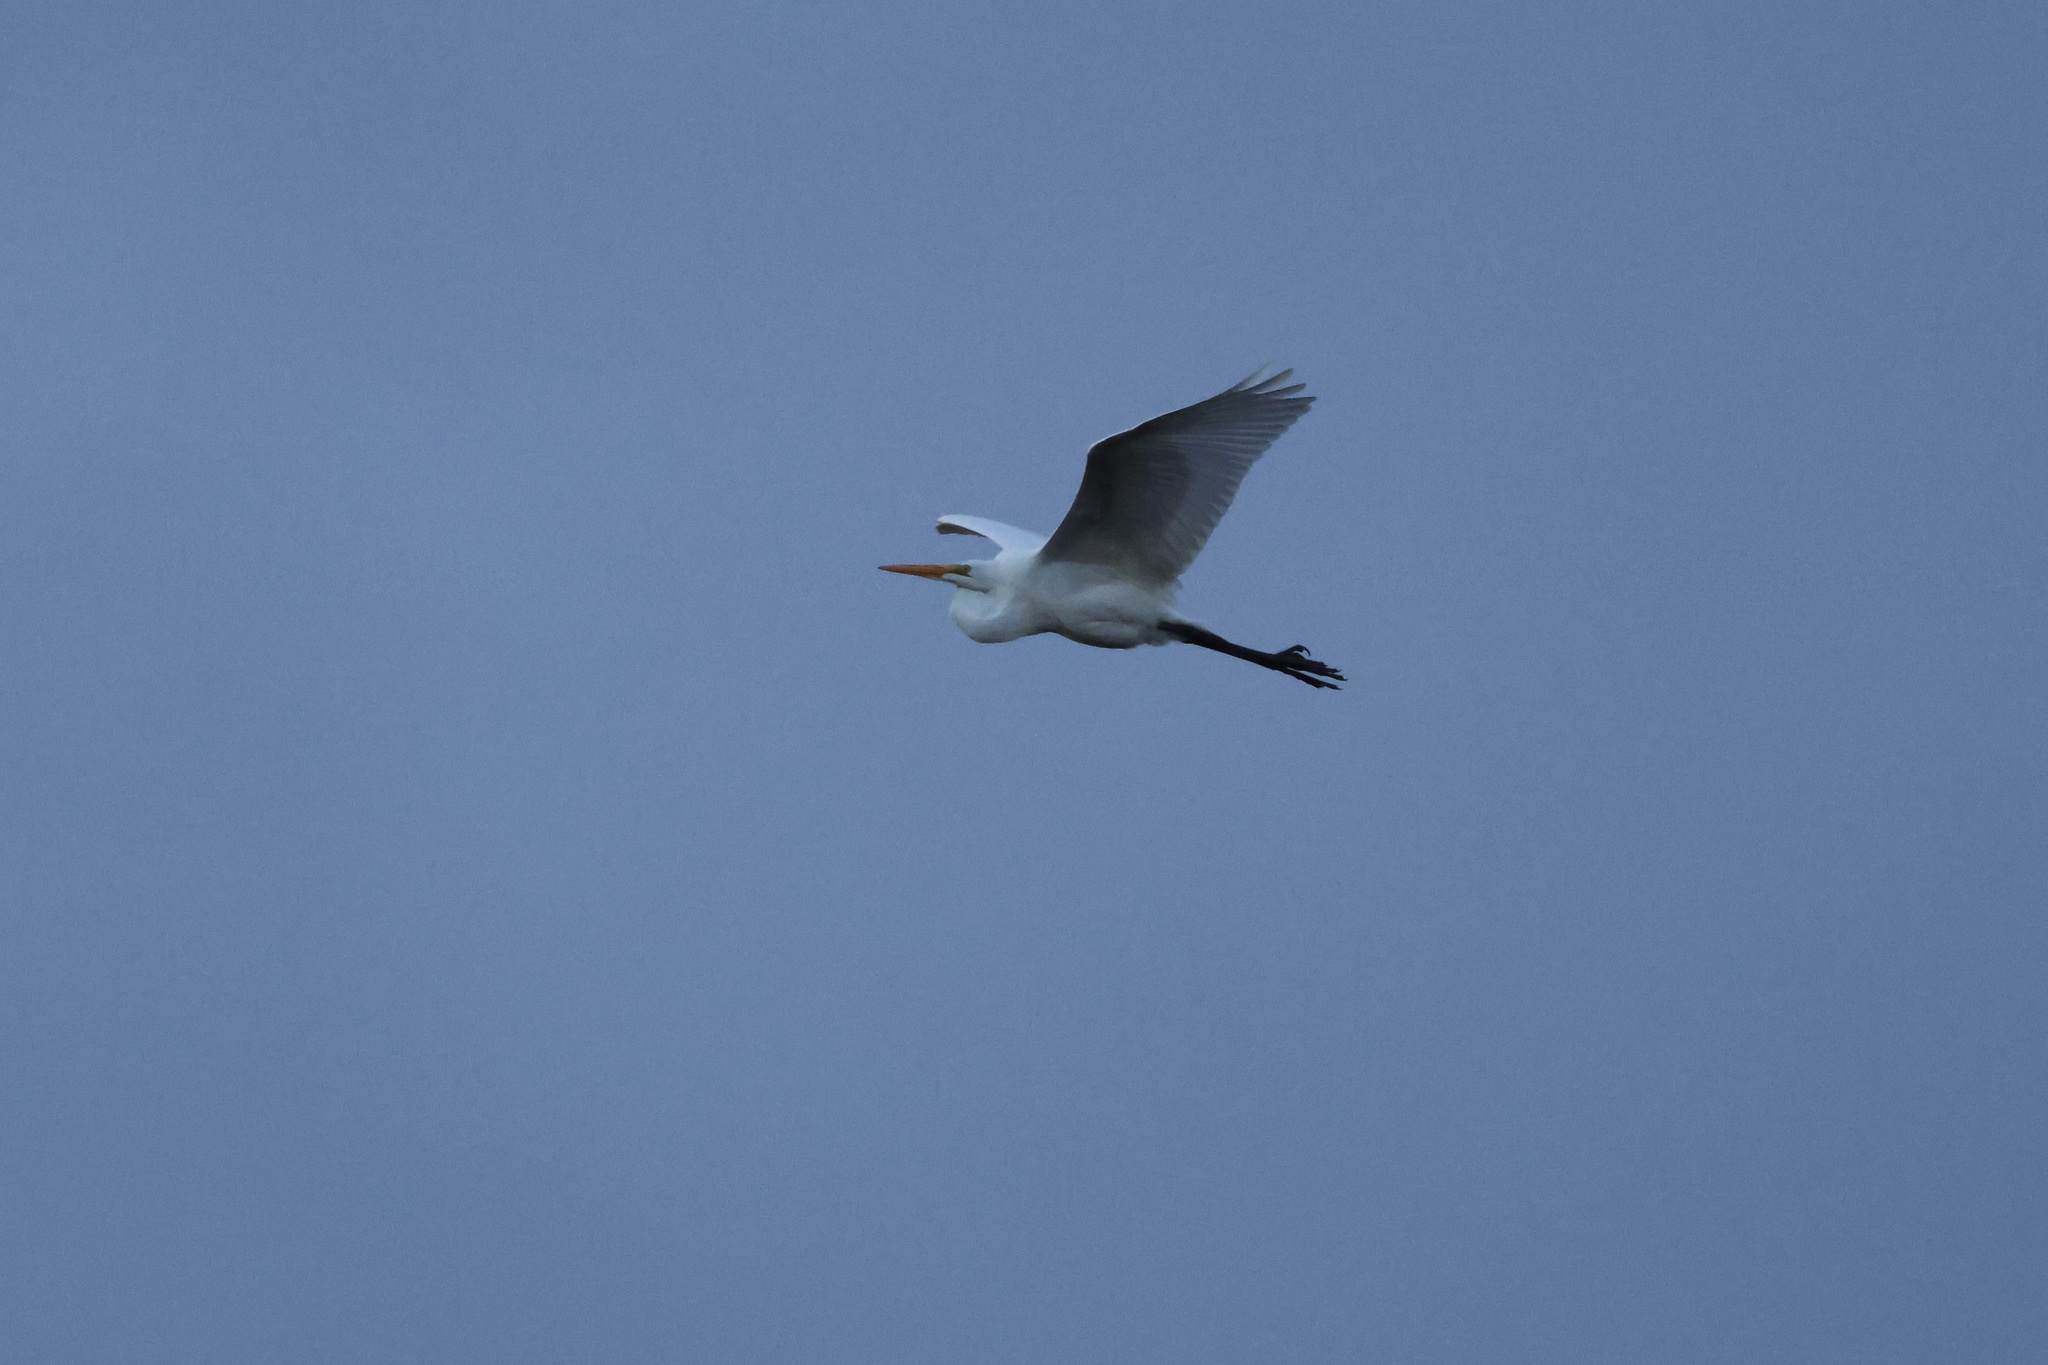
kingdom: Animalia
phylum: Chordata
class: Aves
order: Pelecaniformes
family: Ardeidae
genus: Ardea
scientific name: Ardea alba
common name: Great egret
